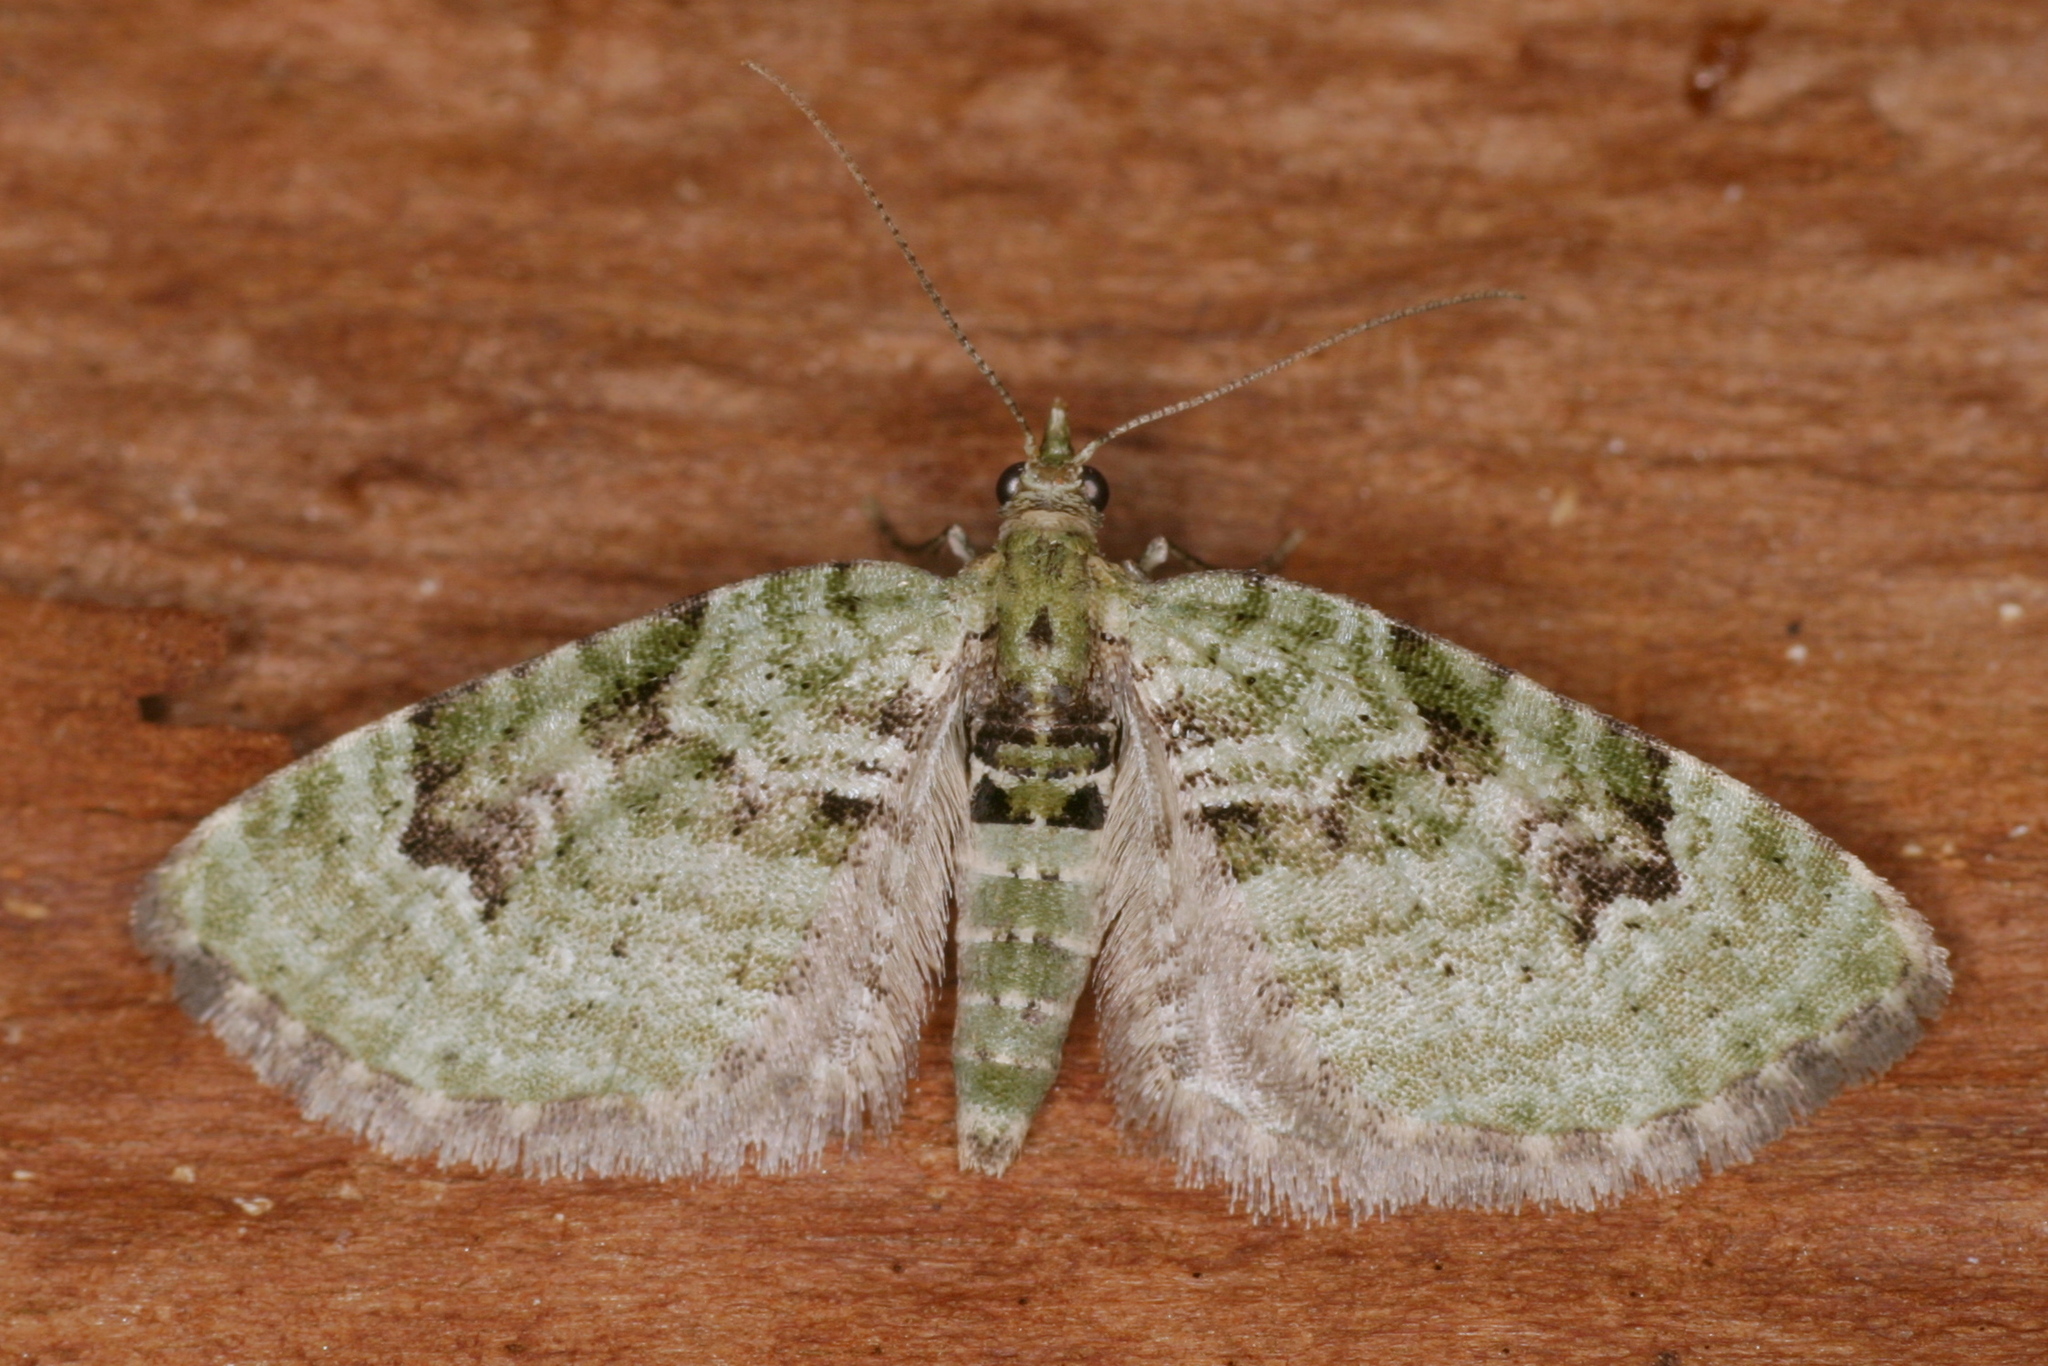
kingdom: Animalia
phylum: Arthropoda
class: Insecta
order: Lepidoptera
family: Geometridae
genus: Chloroclystis
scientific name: Chloroclystis v-ata
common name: V-pug
